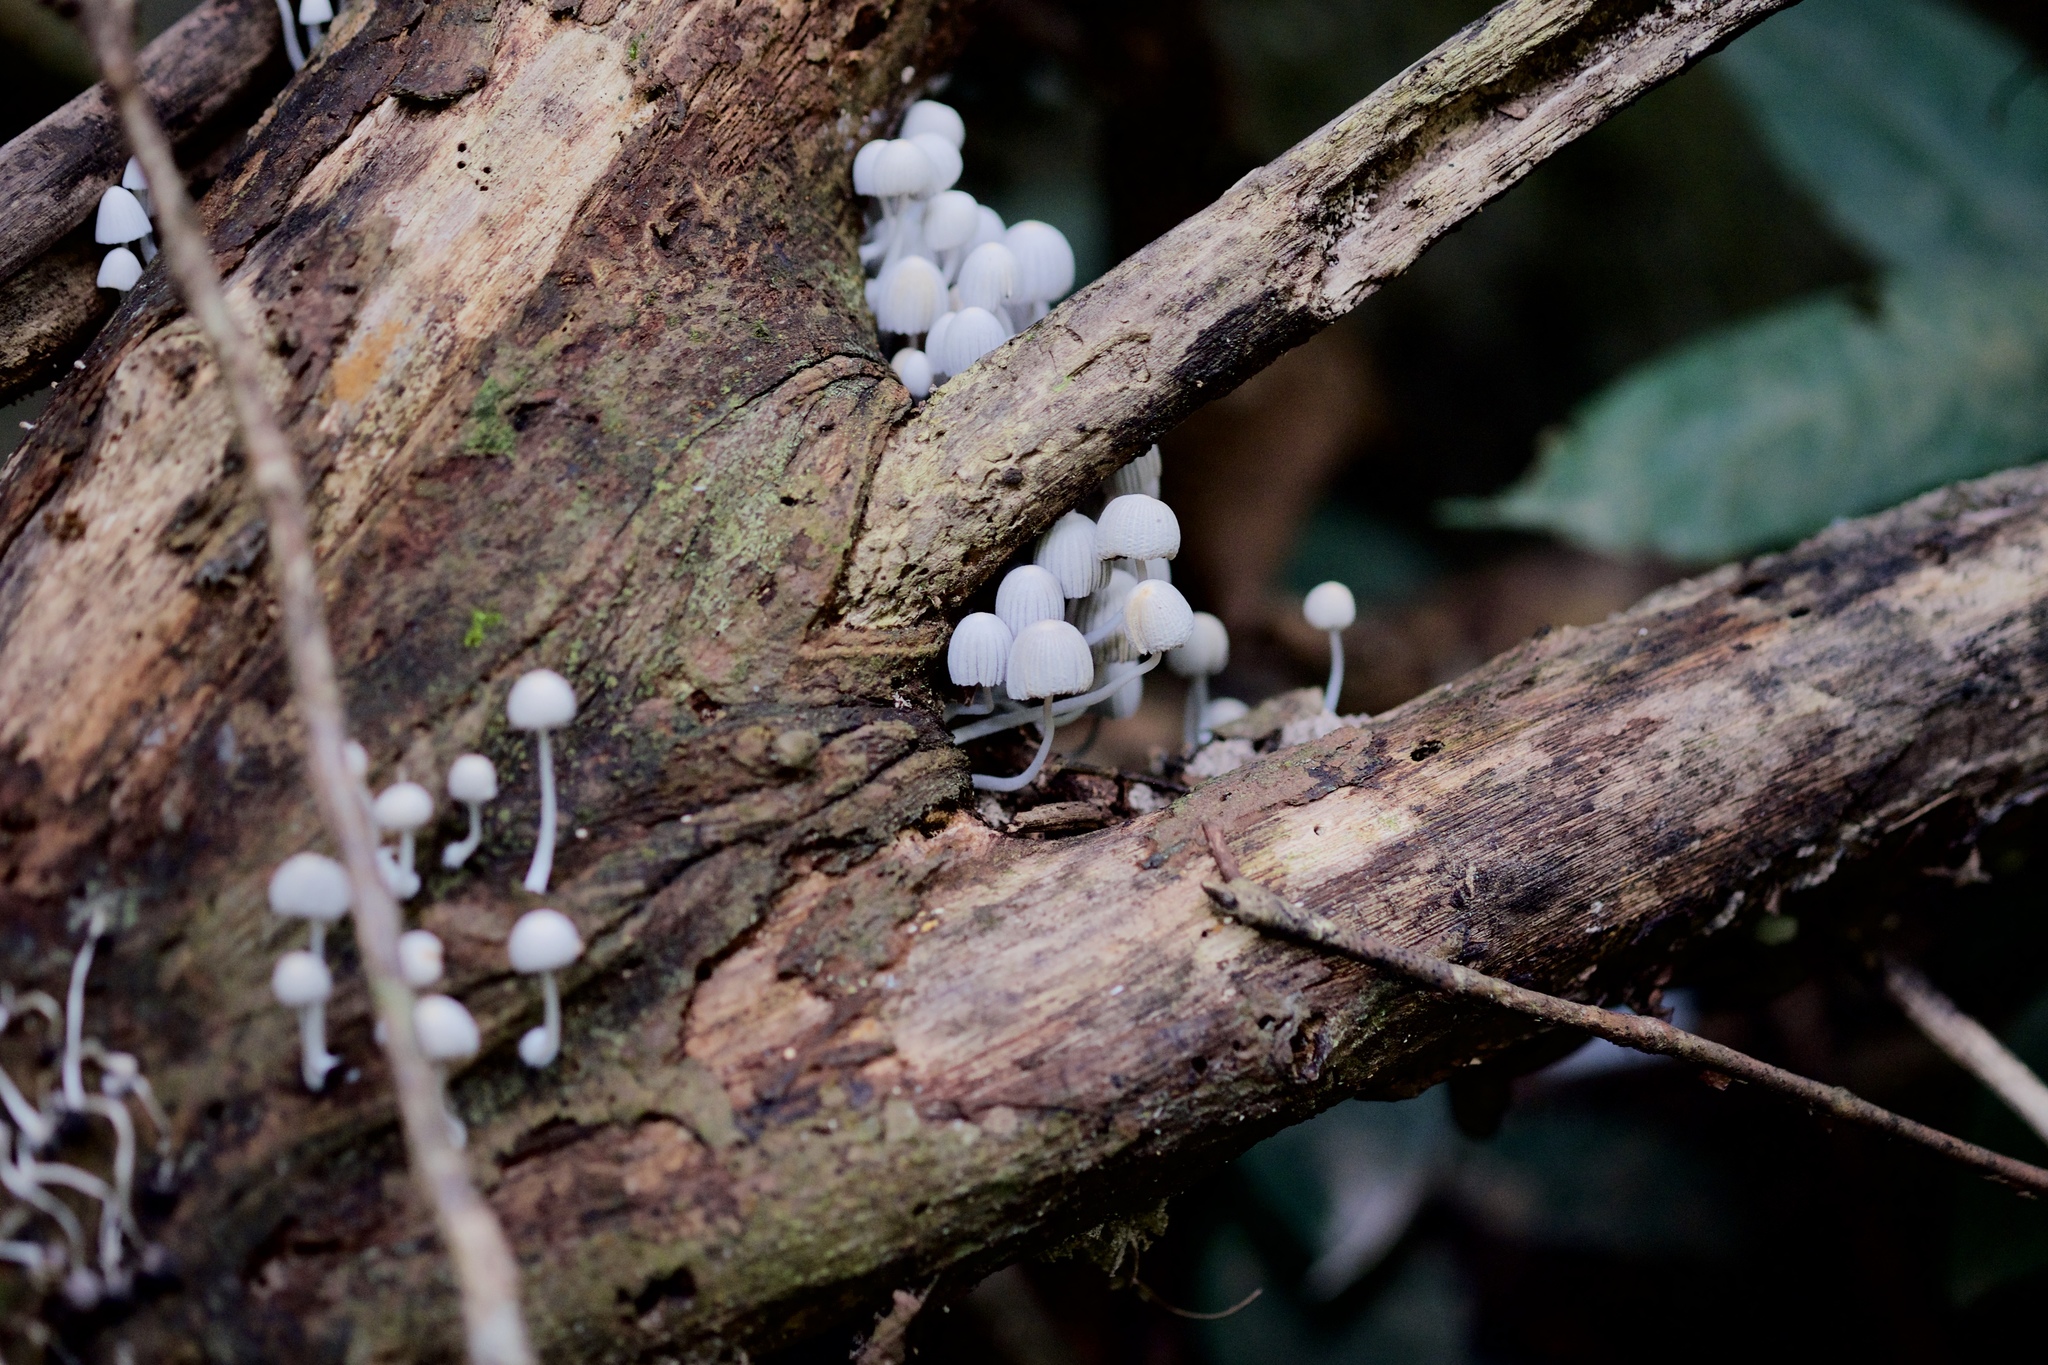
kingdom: Fungi
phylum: Basidiomycota
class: Agaricomycetes
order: Agaricales
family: Psathyrellaceae
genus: Coprinellus
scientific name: Coprinellus disseminatus
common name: Fairies' bonnets
